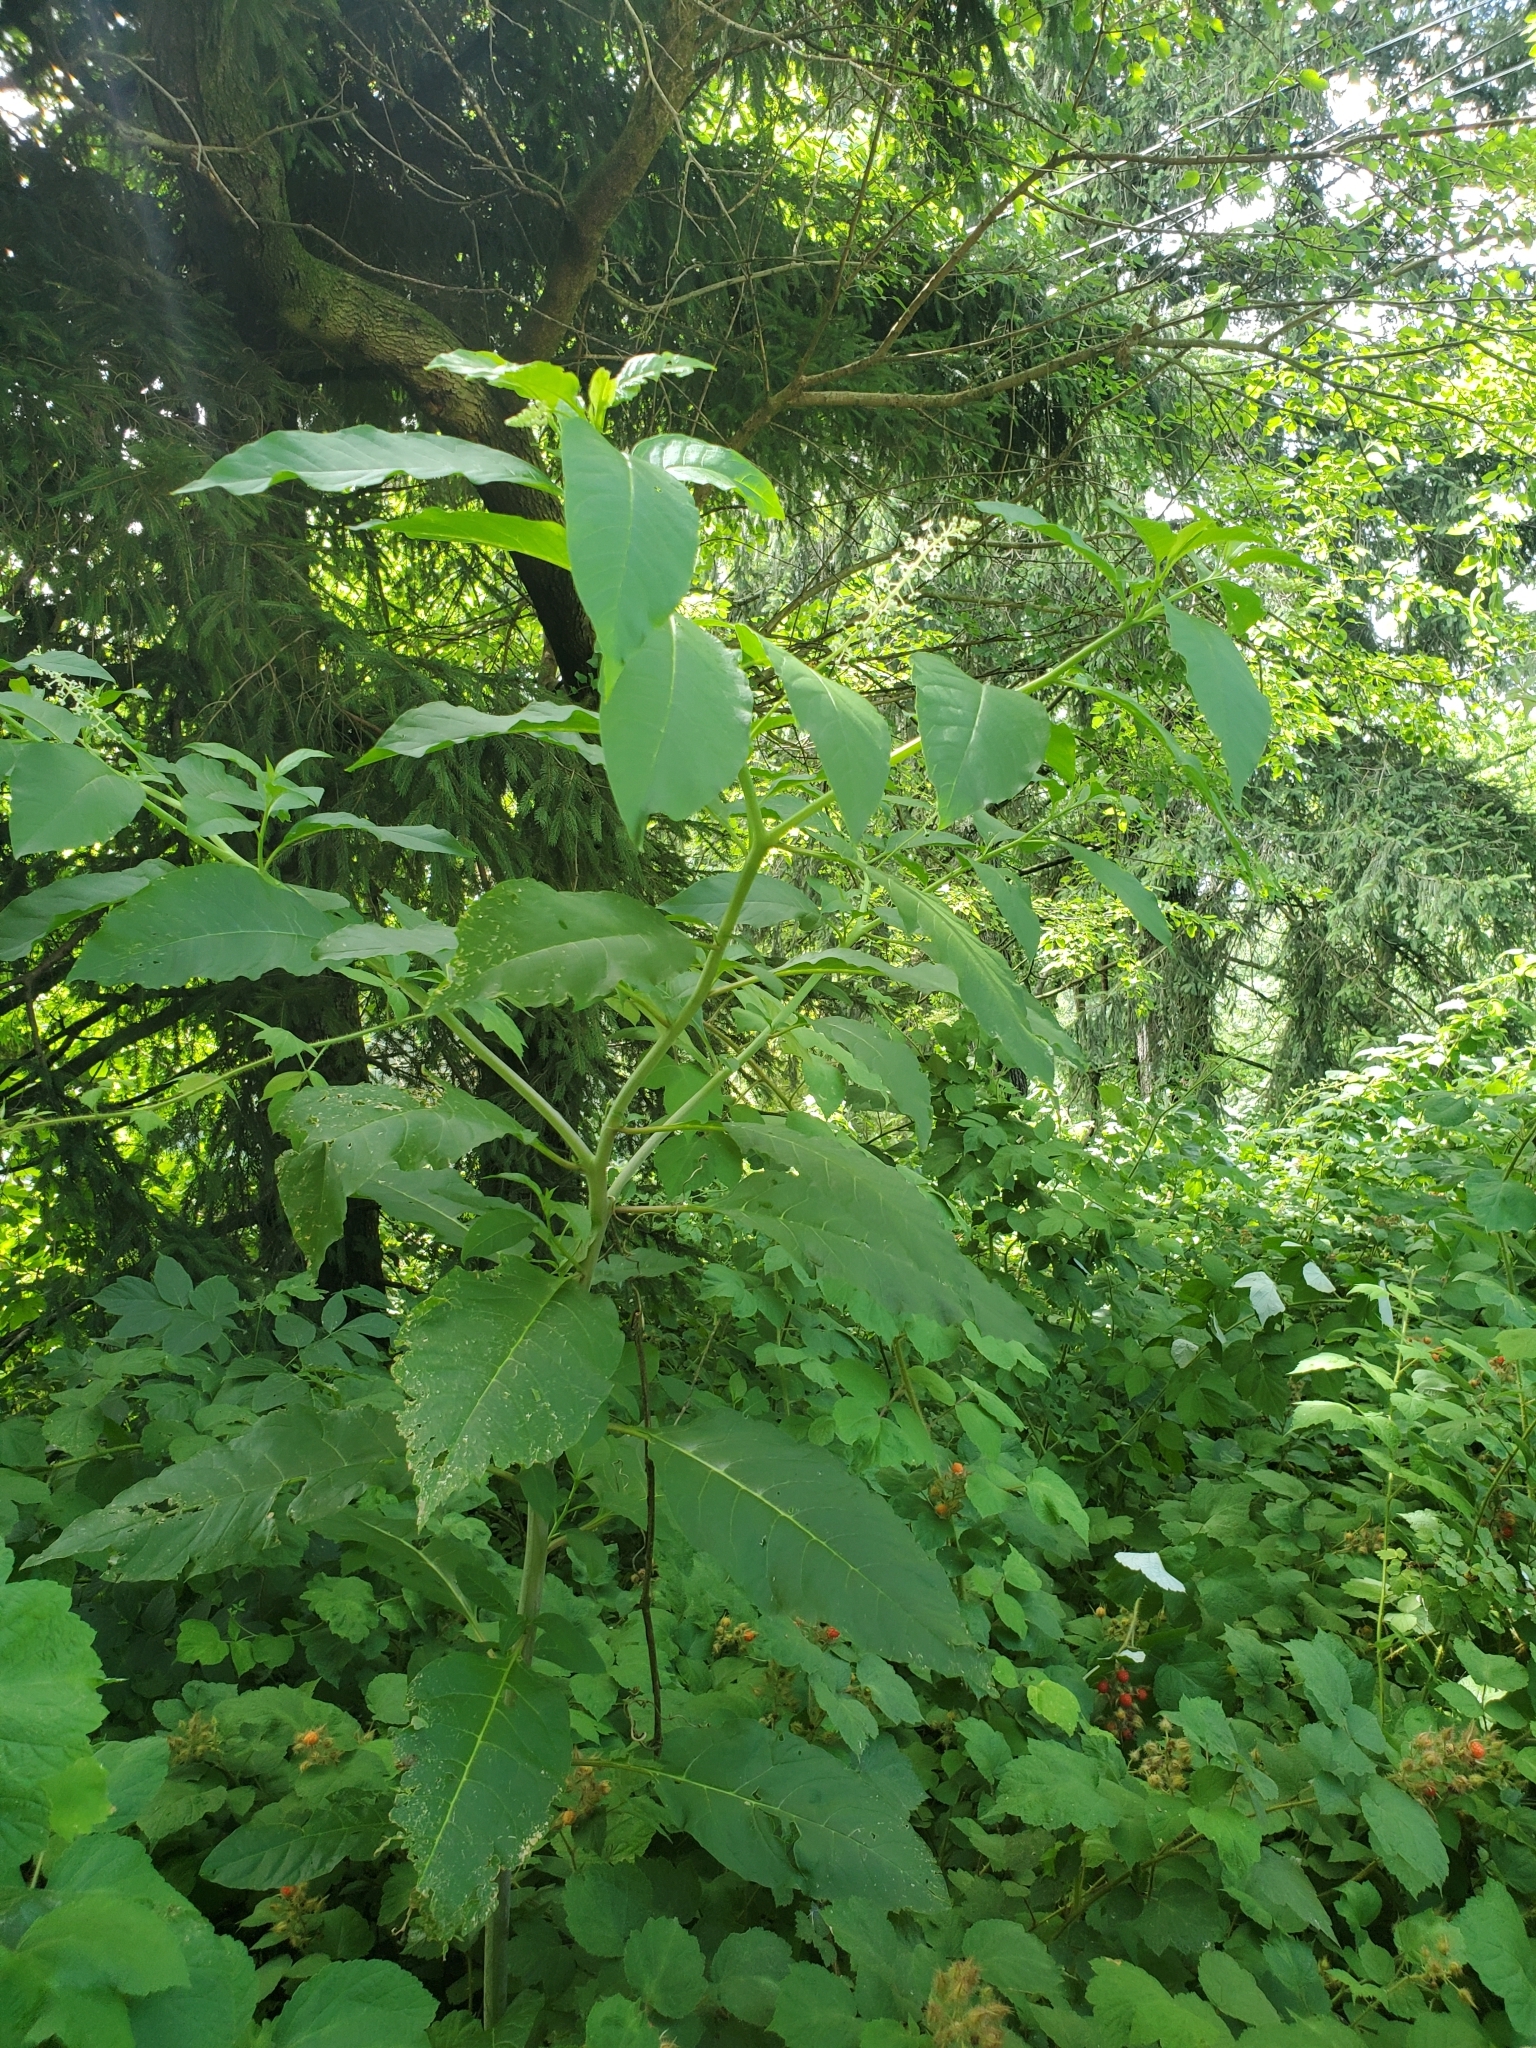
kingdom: Plantae
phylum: Tracheophyta
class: Magnoliopsida
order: Caryophyllales
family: Phytolaccaceae
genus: Phytolacca
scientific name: Phytolacca americana
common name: American pokeweed
